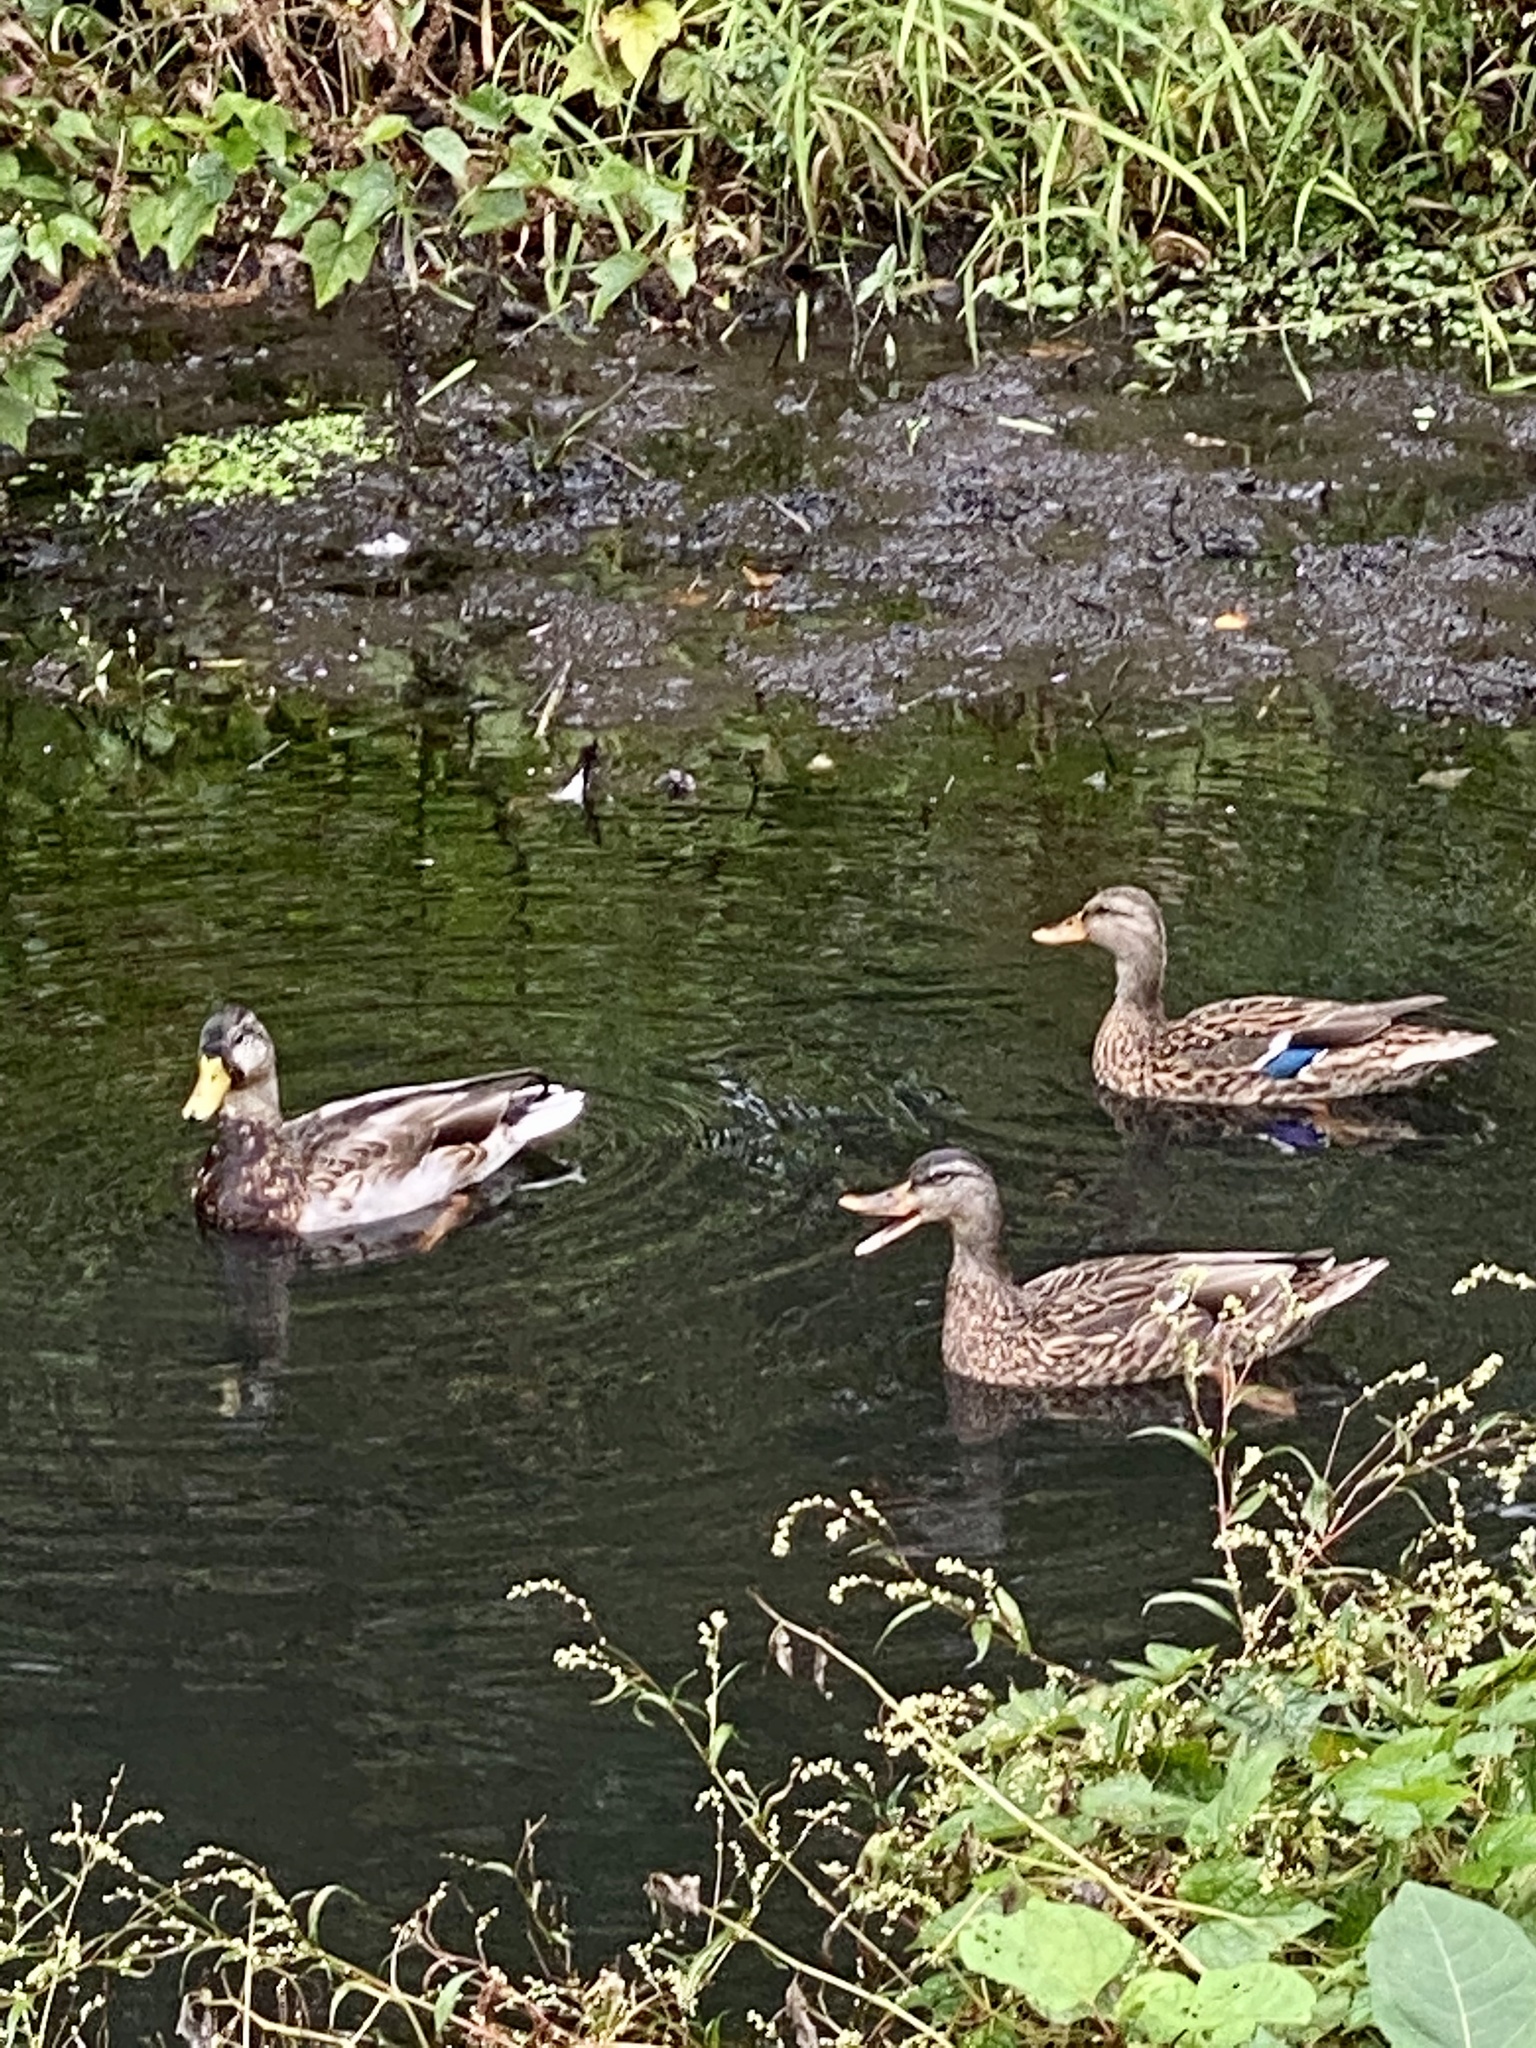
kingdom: Animalia
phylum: Chordata
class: Aves
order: Anseriformes
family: Anatidae
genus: Anas
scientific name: Anas platyrhynchos
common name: Mallard
